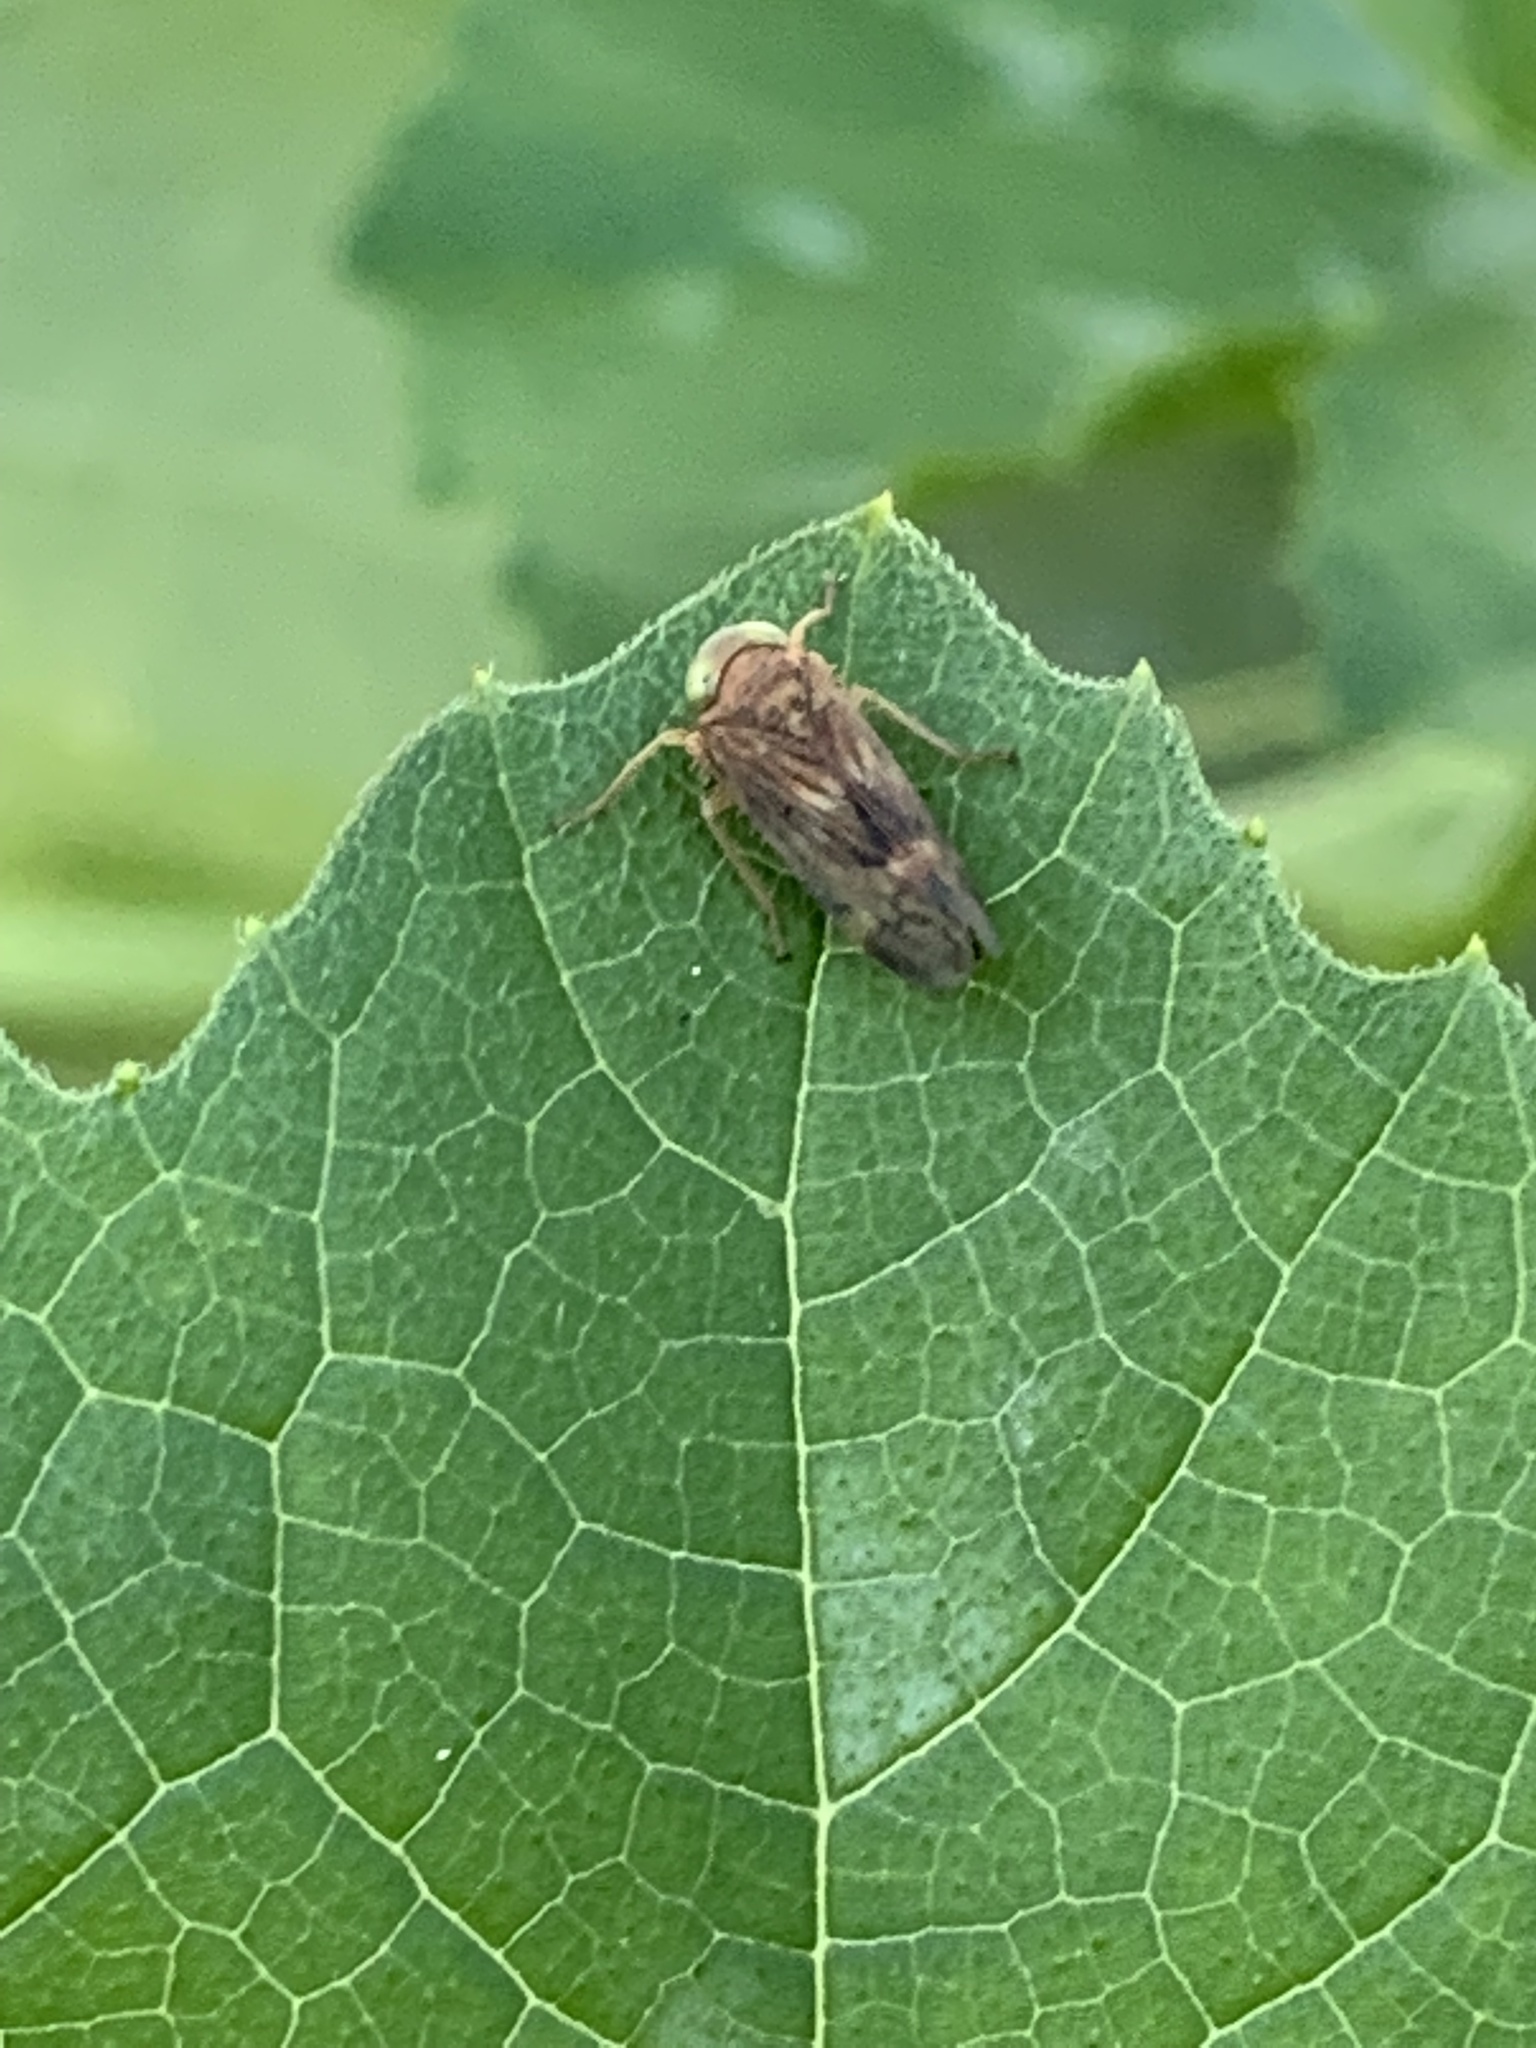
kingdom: Animalia
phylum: Arthropoda
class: Insecta
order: Hemiptera
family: Cicadellidae
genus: Jikradia
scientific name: Jikradia olitoria
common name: Coppery leafhopper
